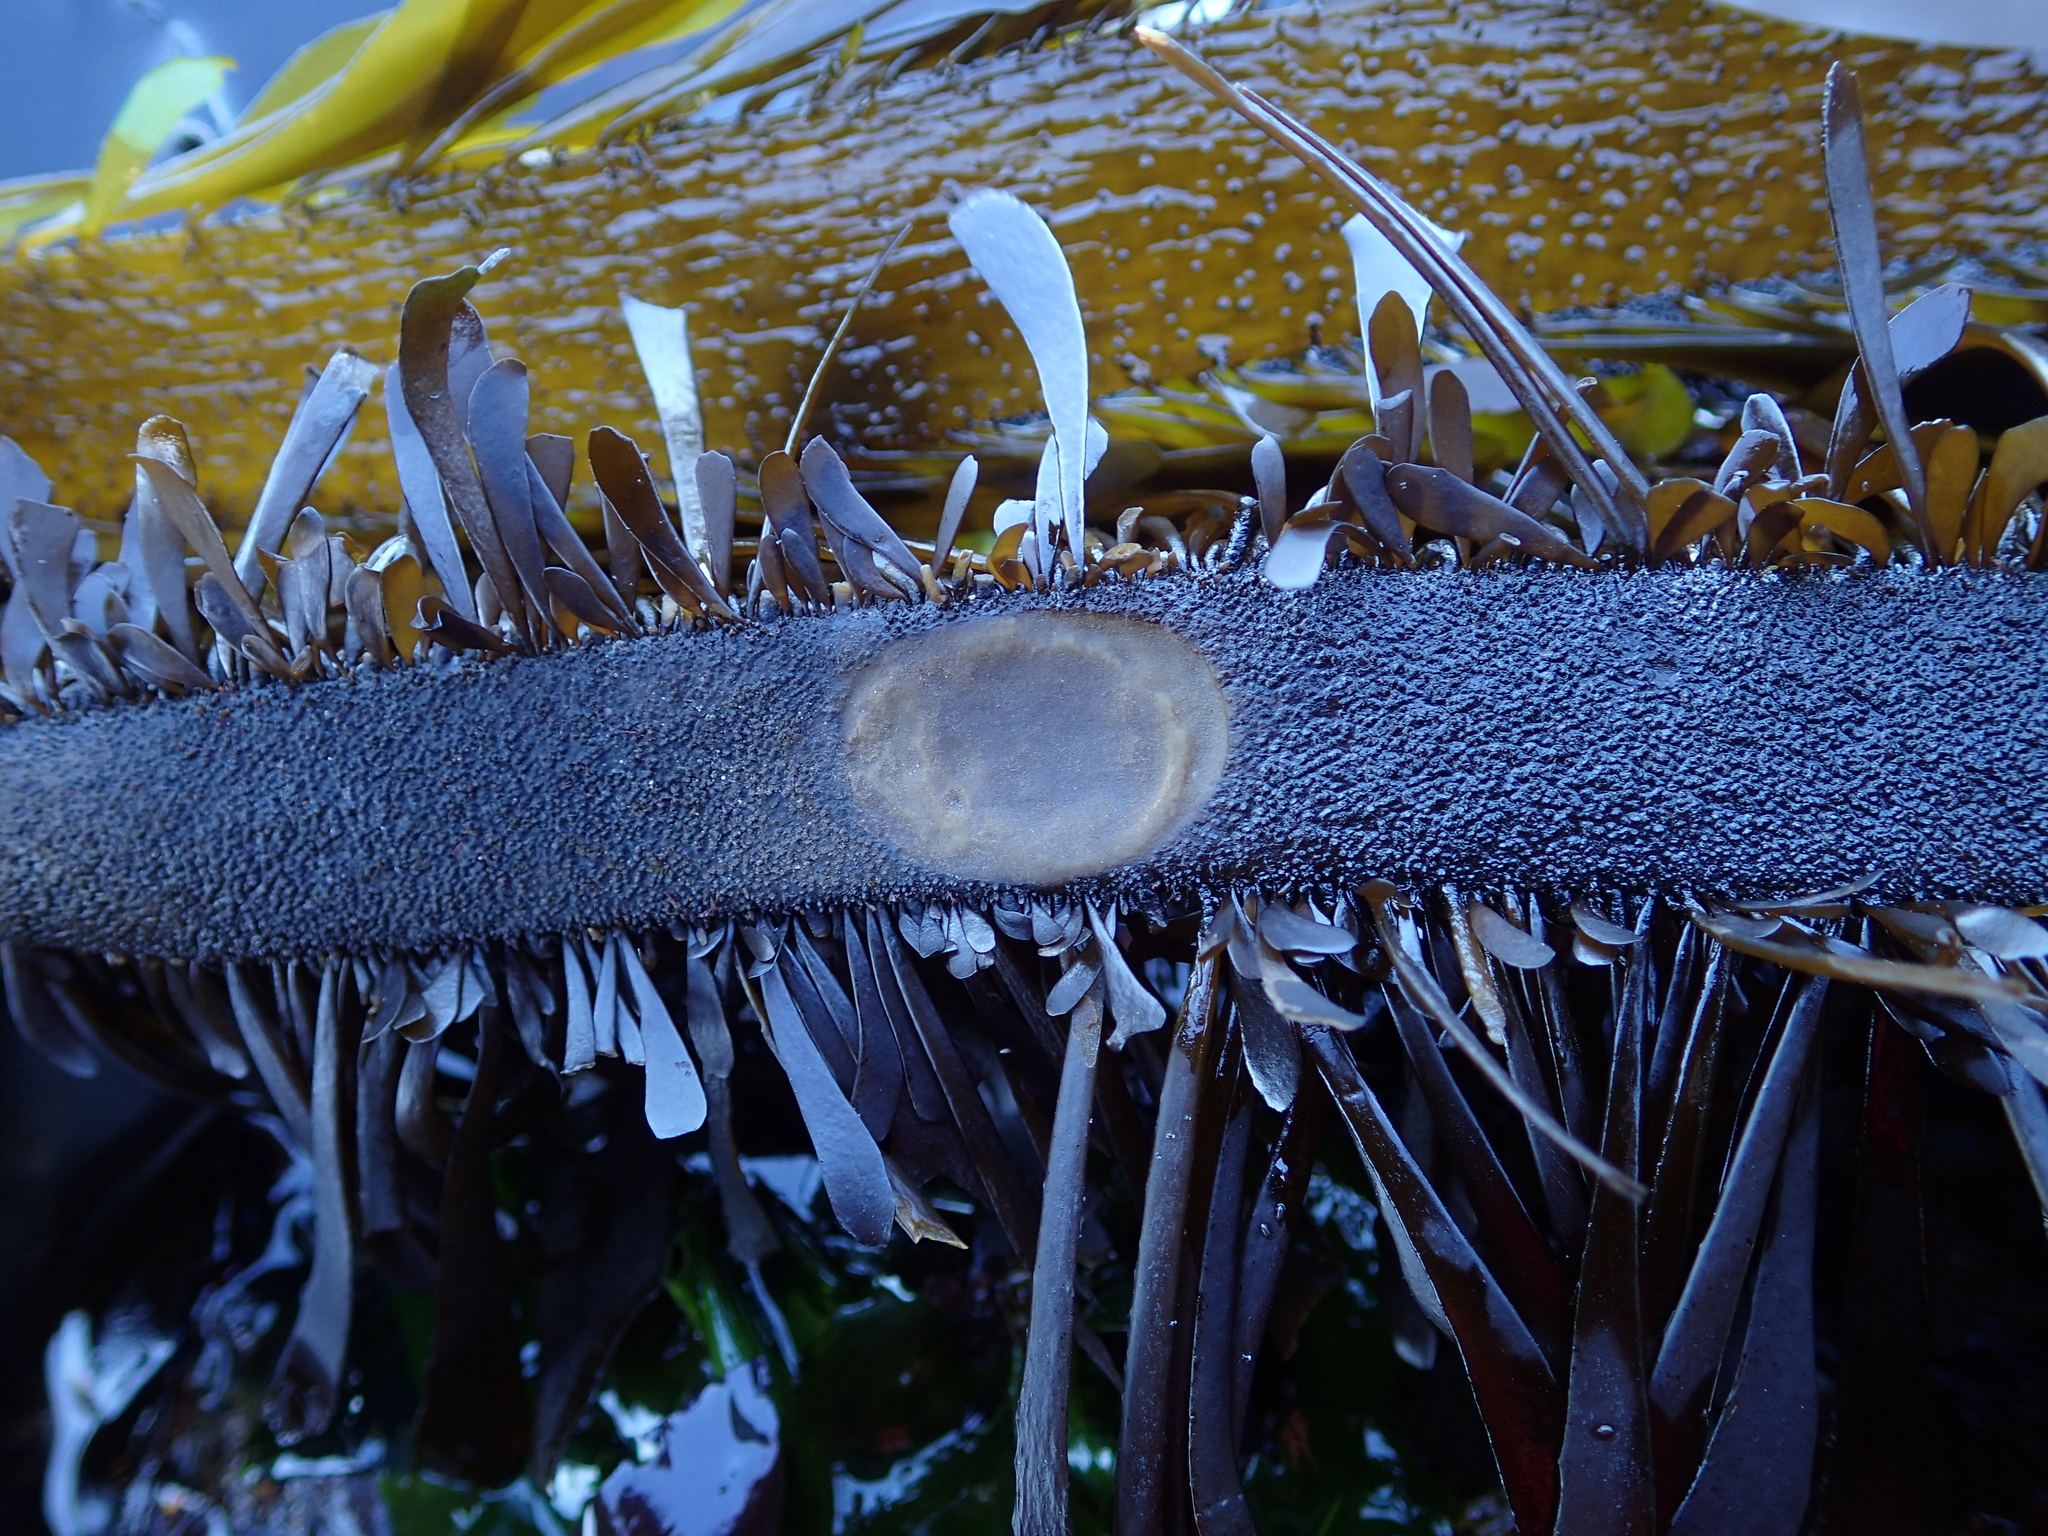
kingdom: Animalia
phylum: Mollusca
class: Gastropoda
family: Lottiidae
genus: Discurria
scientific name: Discurria insessa
